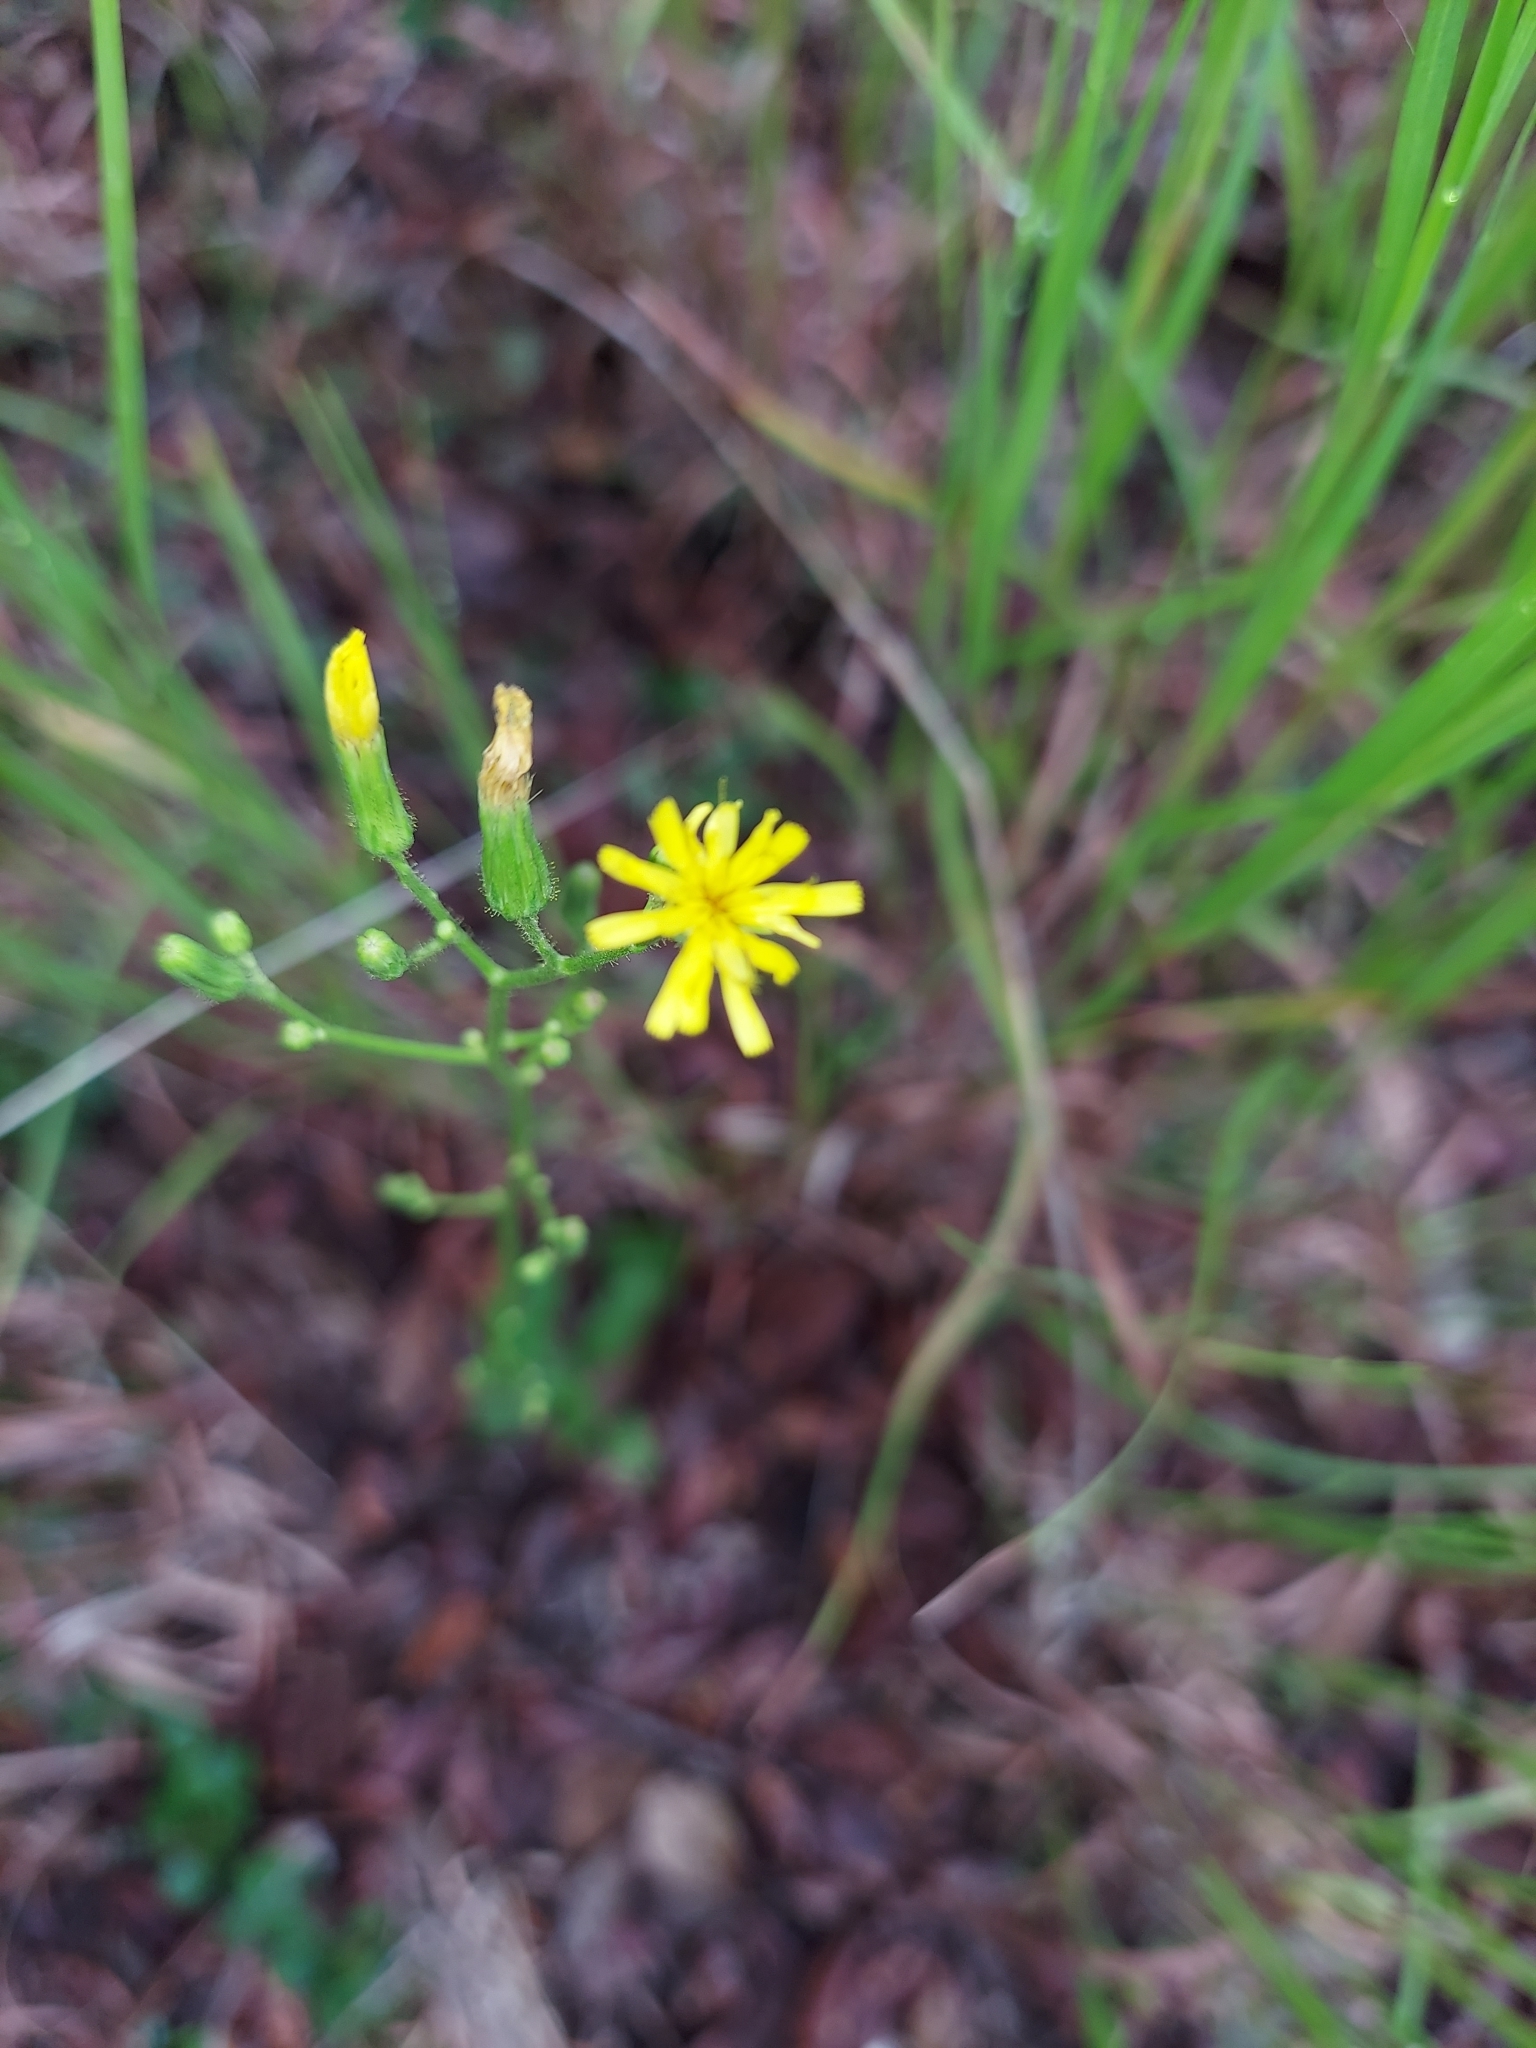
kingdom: Plantae
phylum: Tracheophyta
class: Magnoliopsida
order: Asterales
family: Asteraceae
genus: Hieracium
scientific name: Hieracium gronovii
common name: Beaked hawkweed
